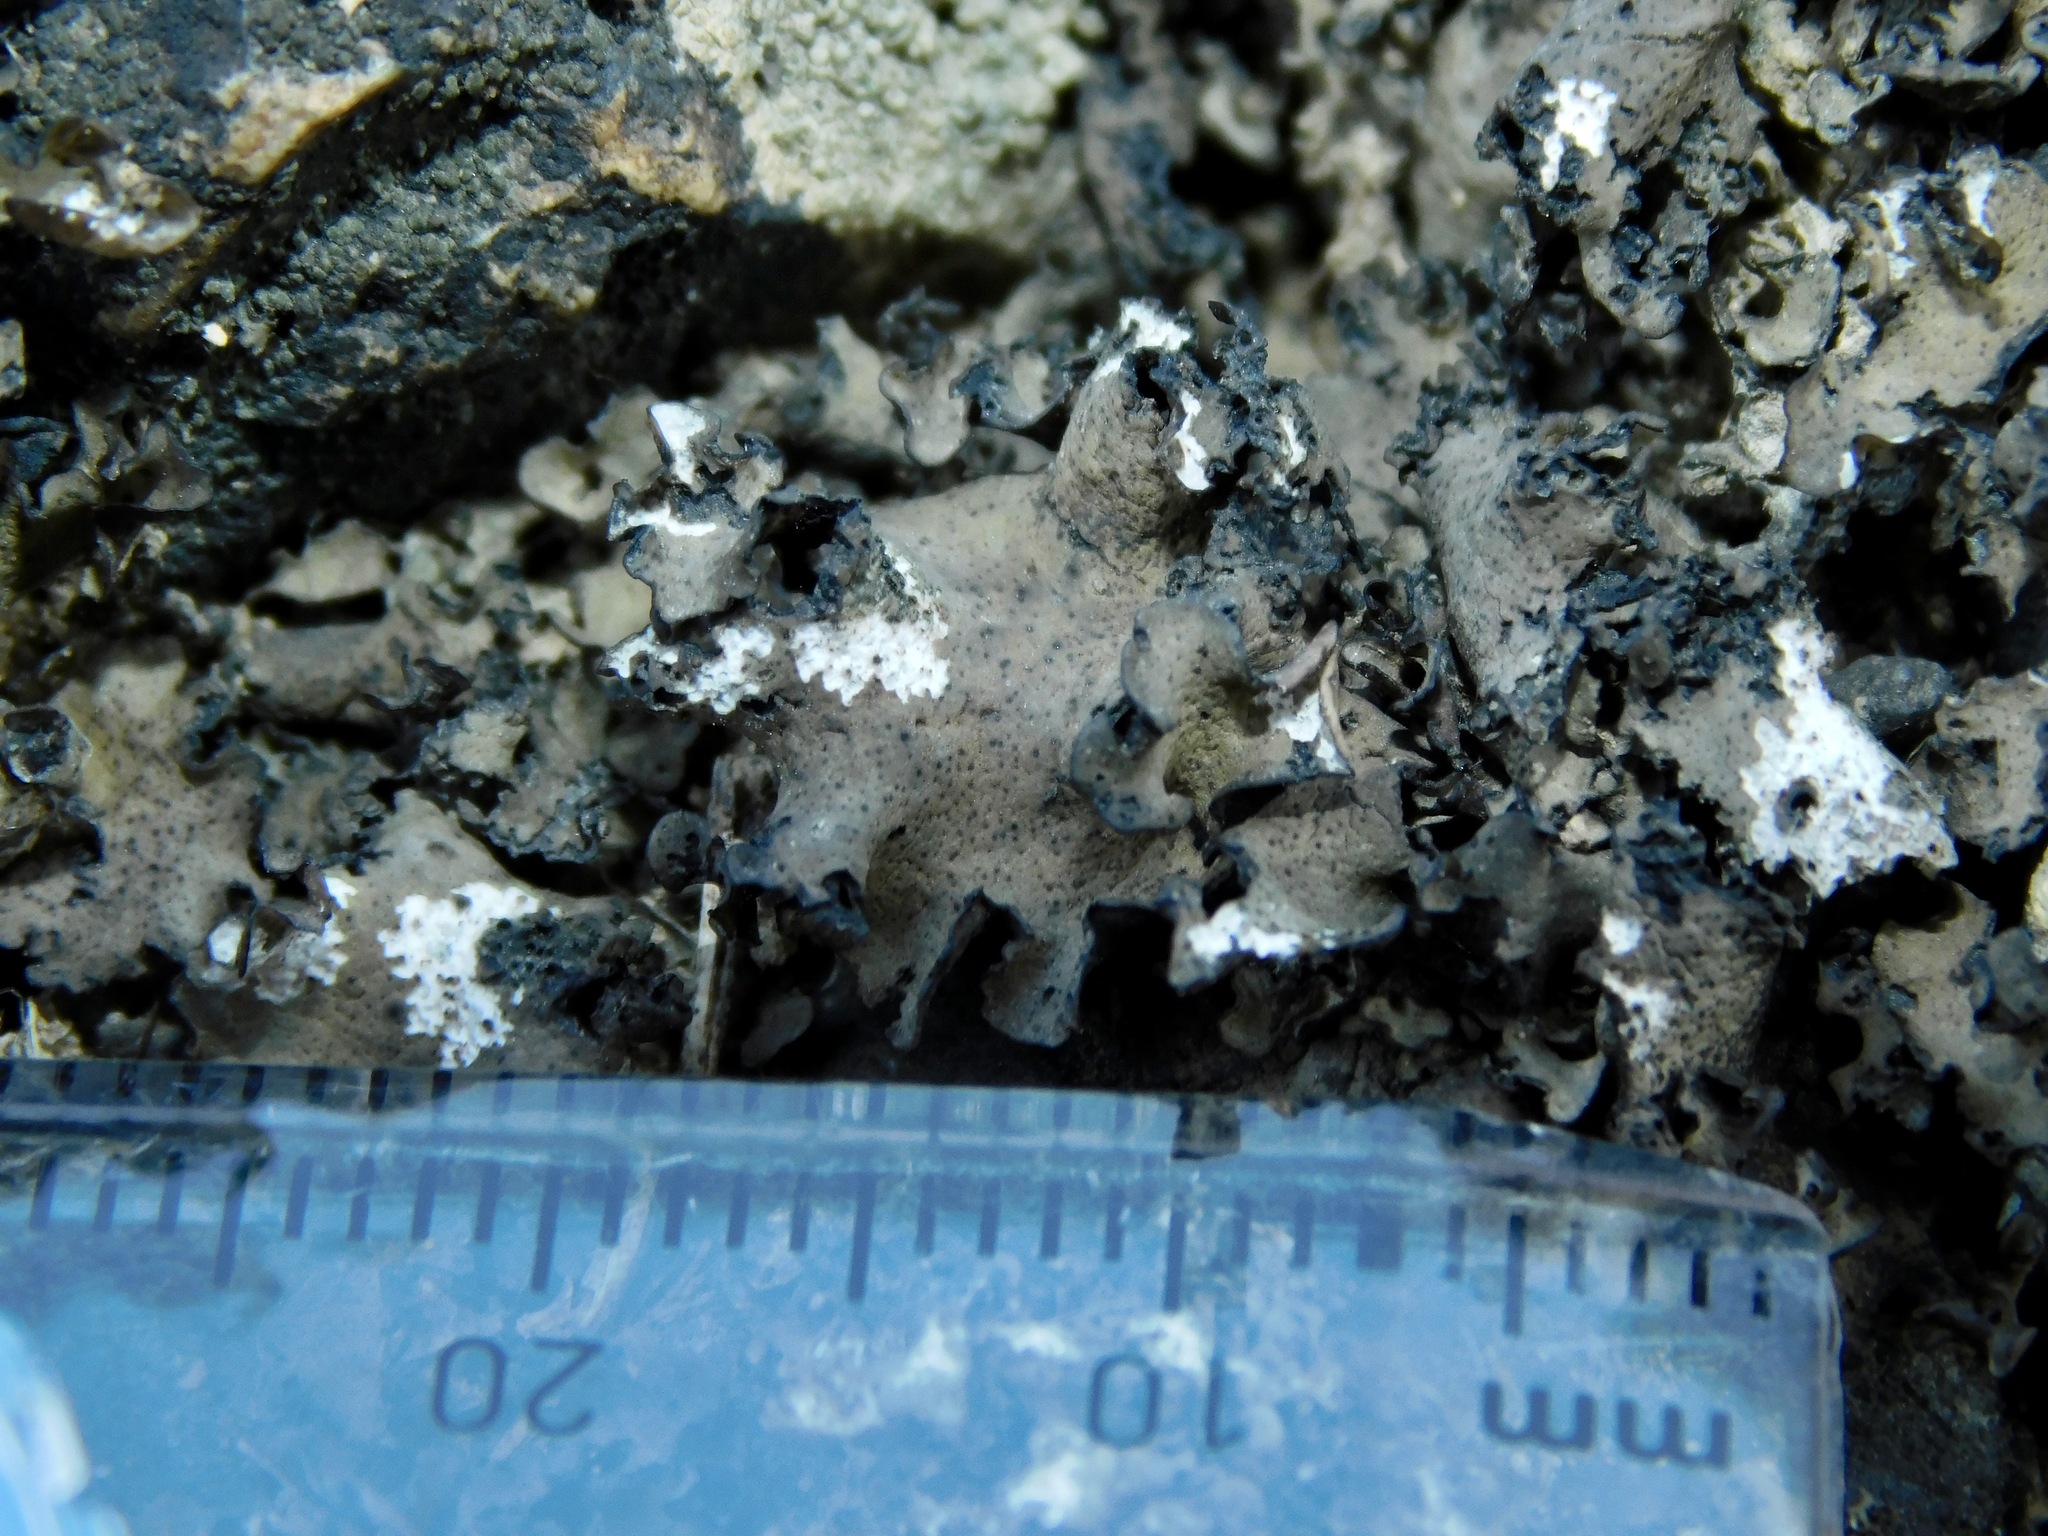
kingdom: Fungi
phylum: Ascomycota
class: Eurotiomycetes
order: Verrucariales
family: Verrucariaceae
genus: Dermatocarpon
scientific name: Dermatocarpon arenosaxi
